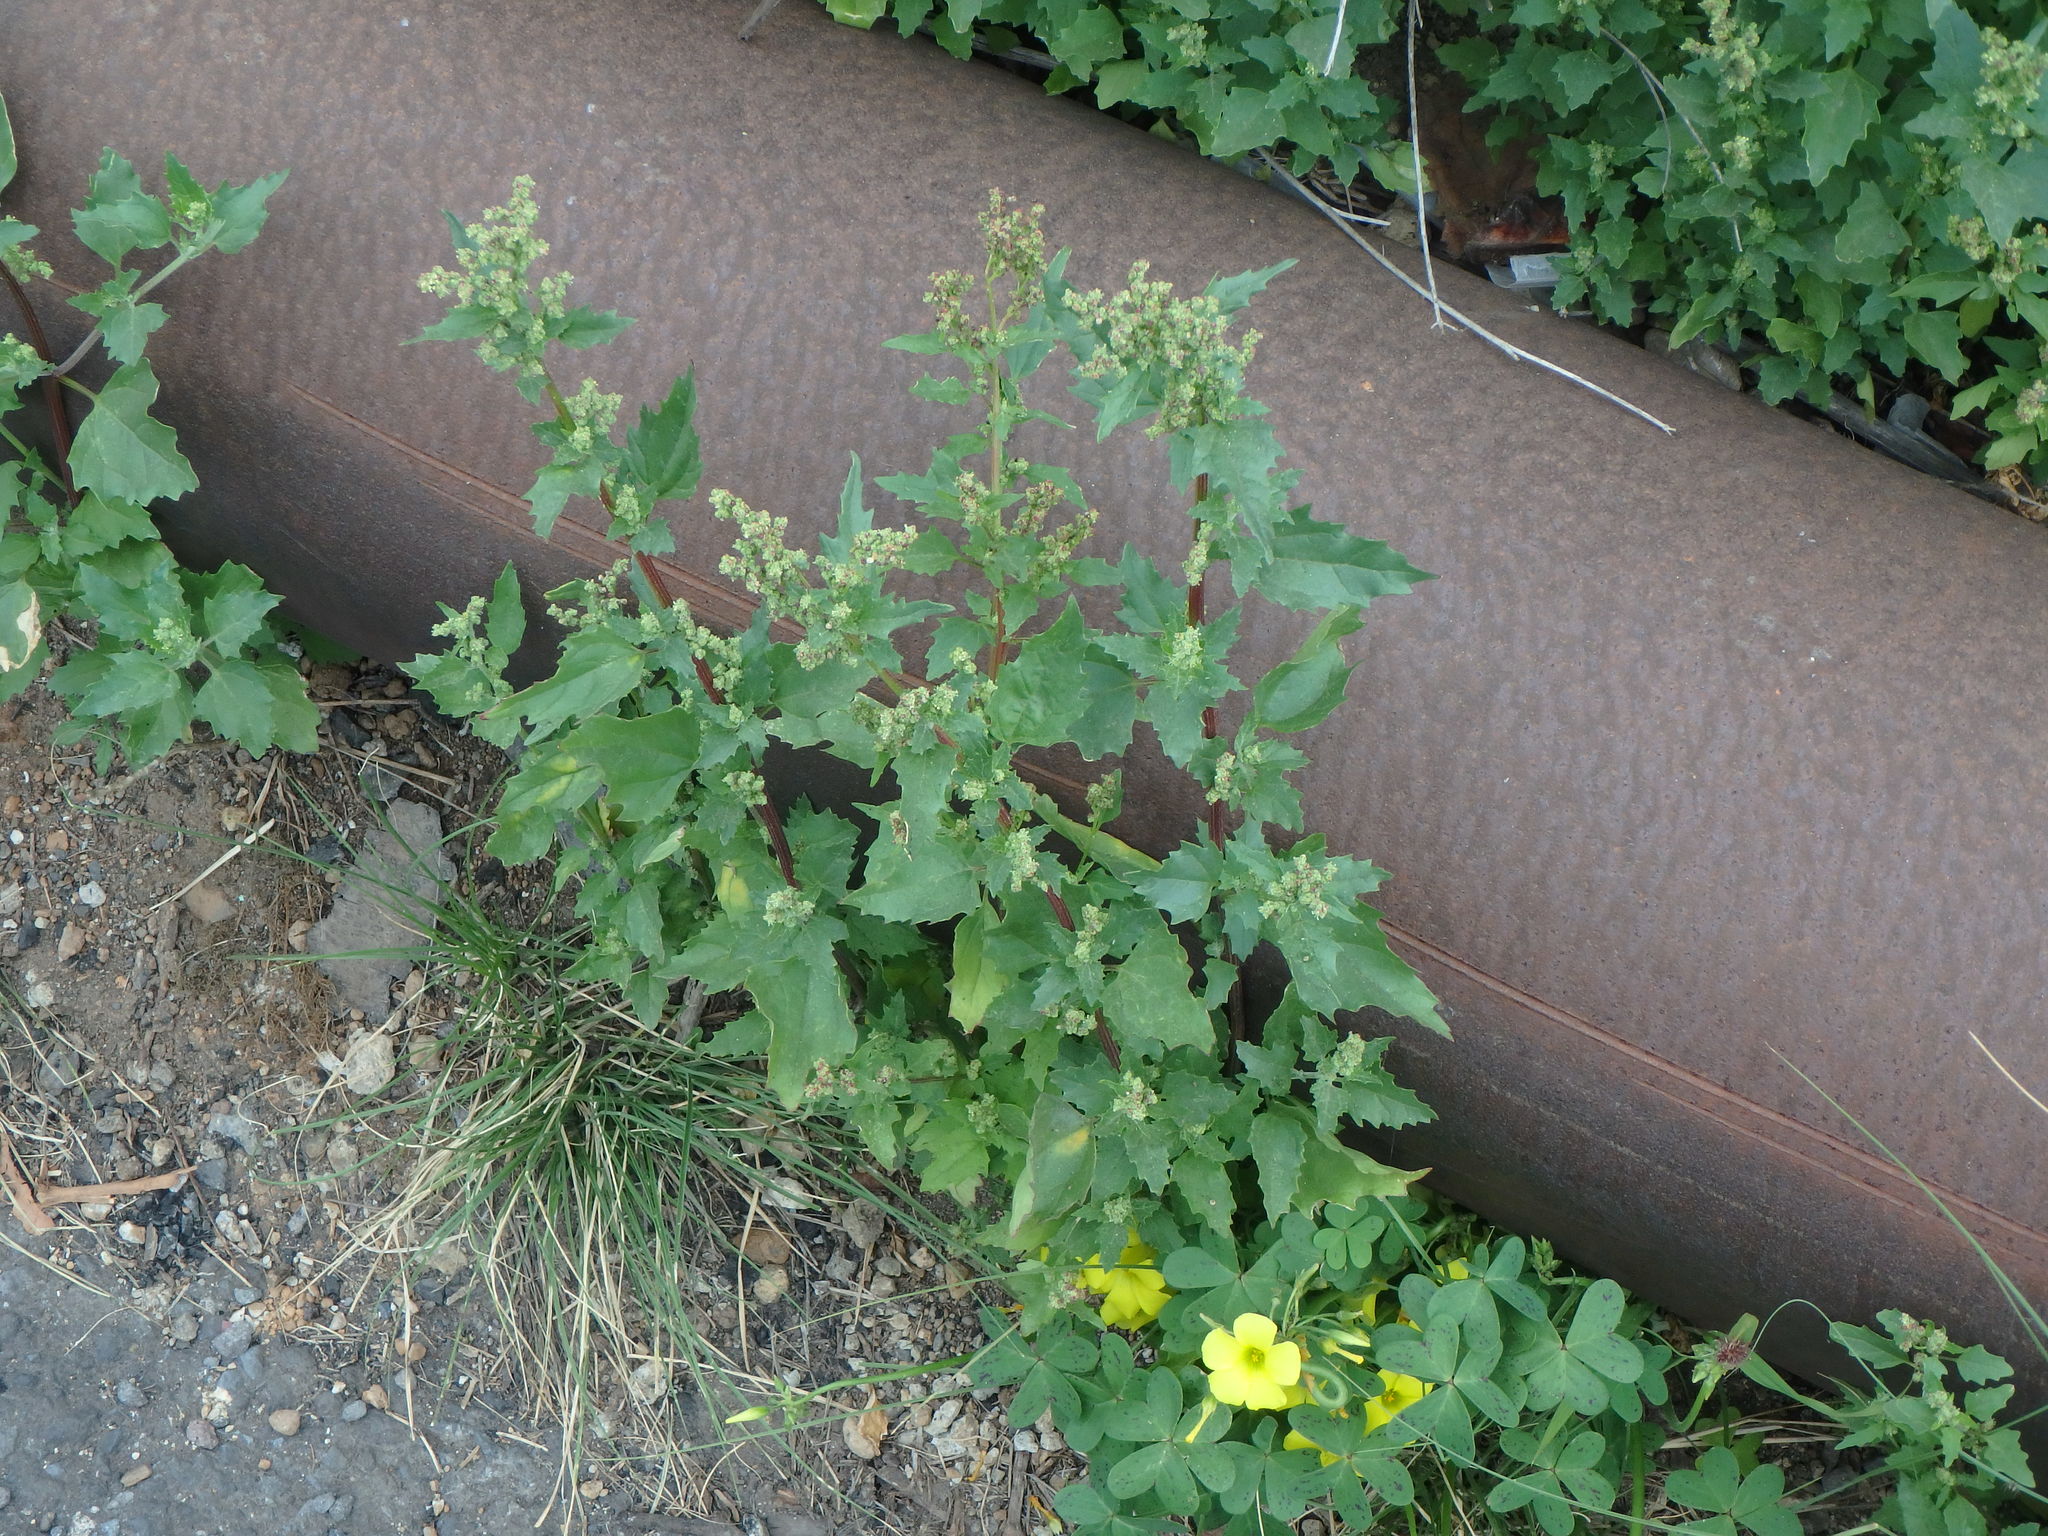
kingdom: Plantae
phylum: Tracheophyta
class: Magnoliopsida
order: Caryophyllales
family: Amaranthaceae
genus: Chenopodiastrum
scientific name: Chenopodiastrum murale
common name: Sowbane
